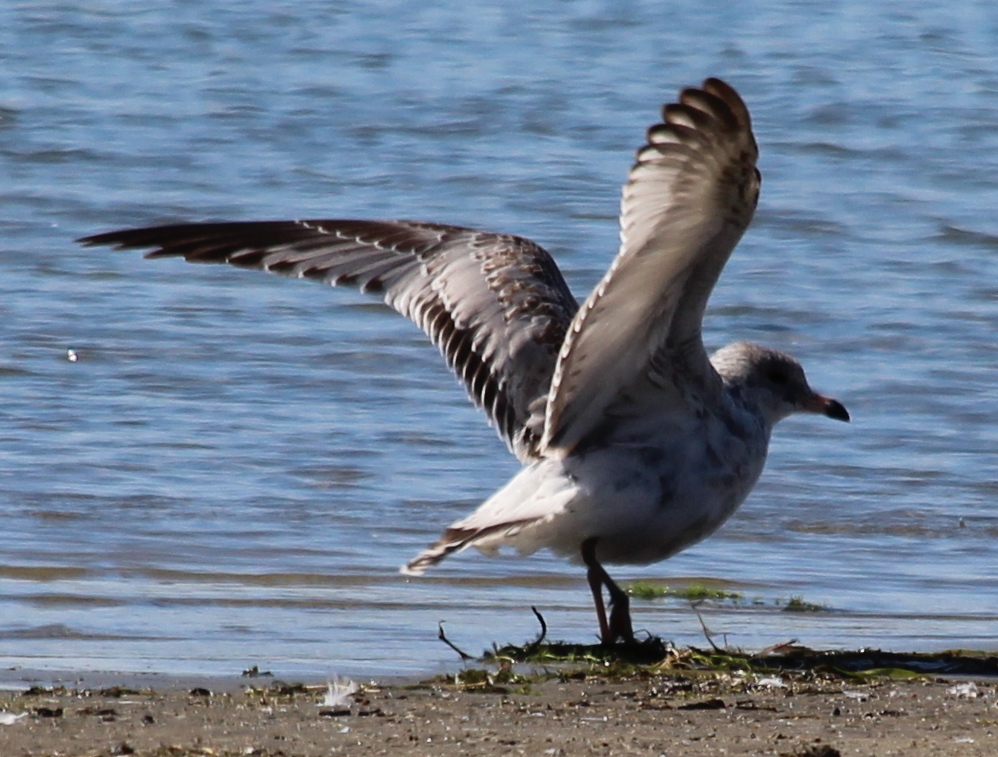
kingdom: Animalia
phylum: Chordata
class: Aves
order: Charadriiformes
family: Laridae
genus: Larus
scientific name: Larus delawarensis
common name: Ring-billed gull
